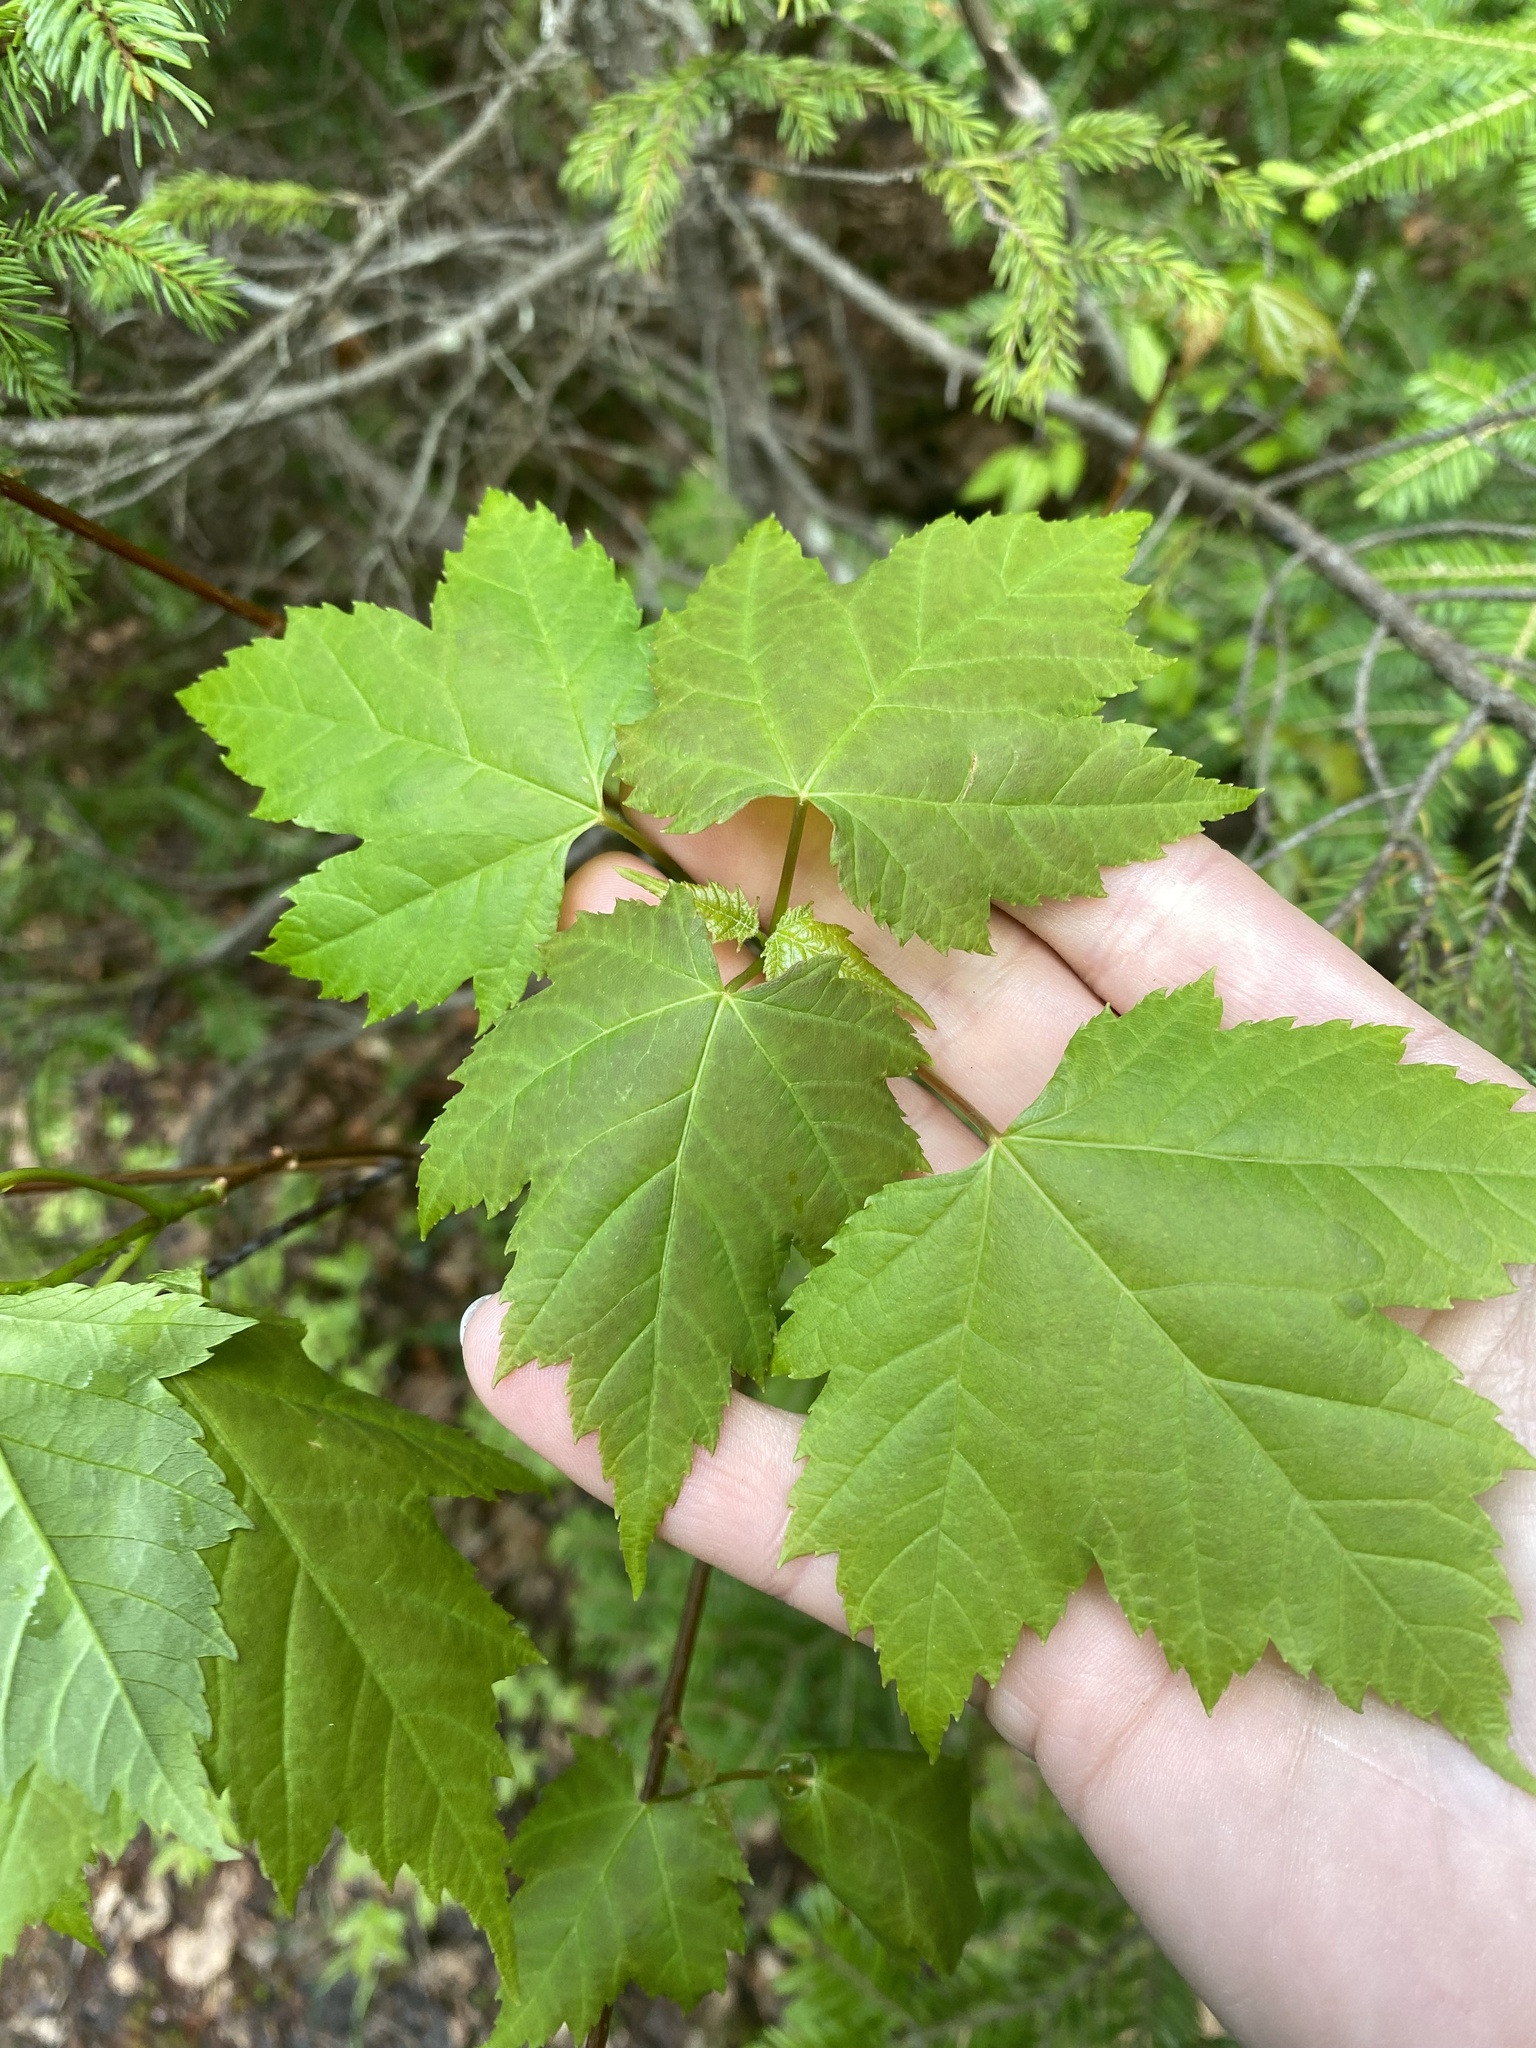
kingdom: Plantae
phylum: Tracheophyta
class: Magnoliopsida
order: Sapindales
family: Sapindaceae
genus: Acer
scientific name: Acer rubrum
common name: Red maple
